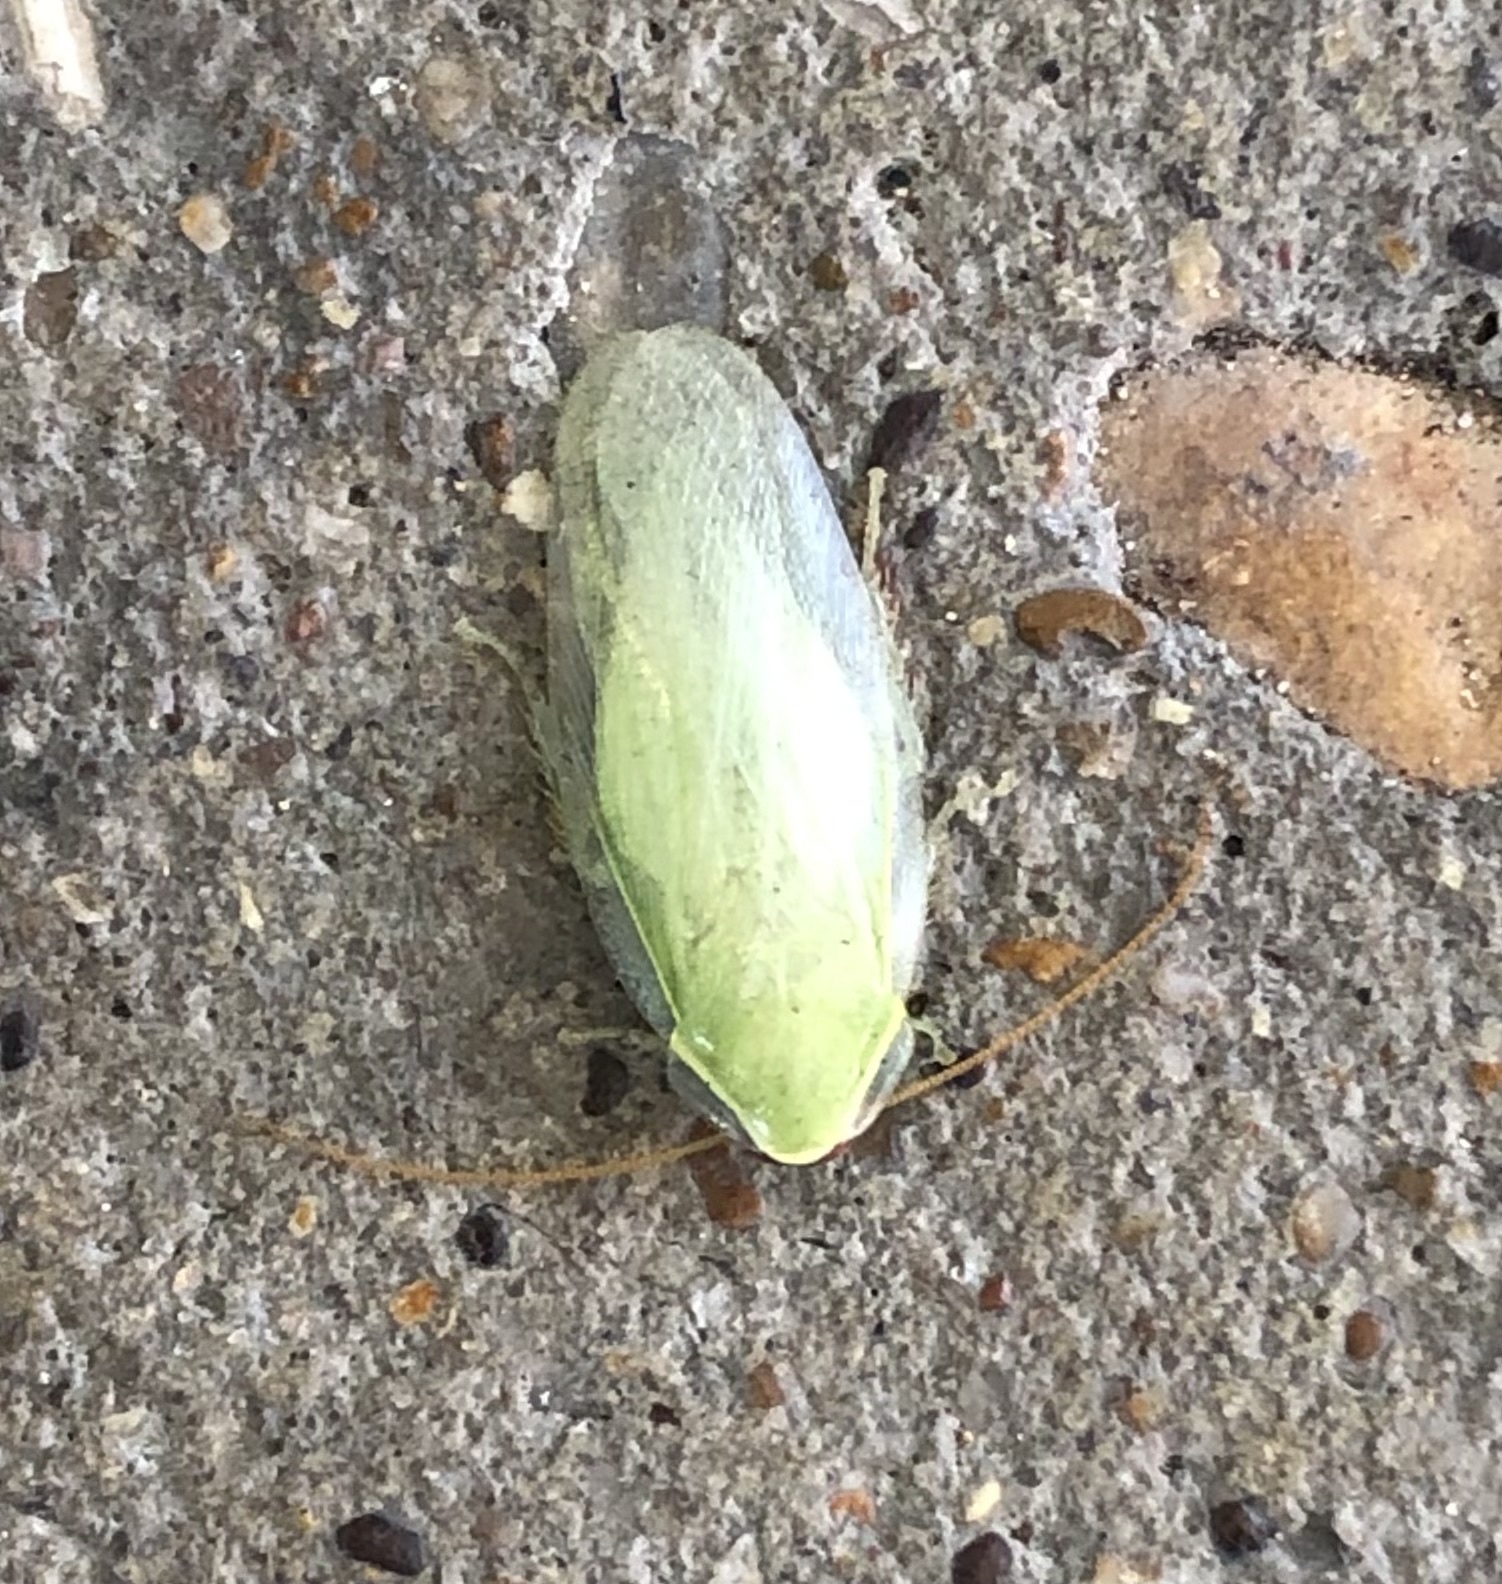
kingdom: Animalia
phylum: Arthropoda
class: Insecta
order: Blattodea
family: Blaberidae
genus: Panchlora
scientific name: Panchlora nivea
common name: Cuban cockroach
